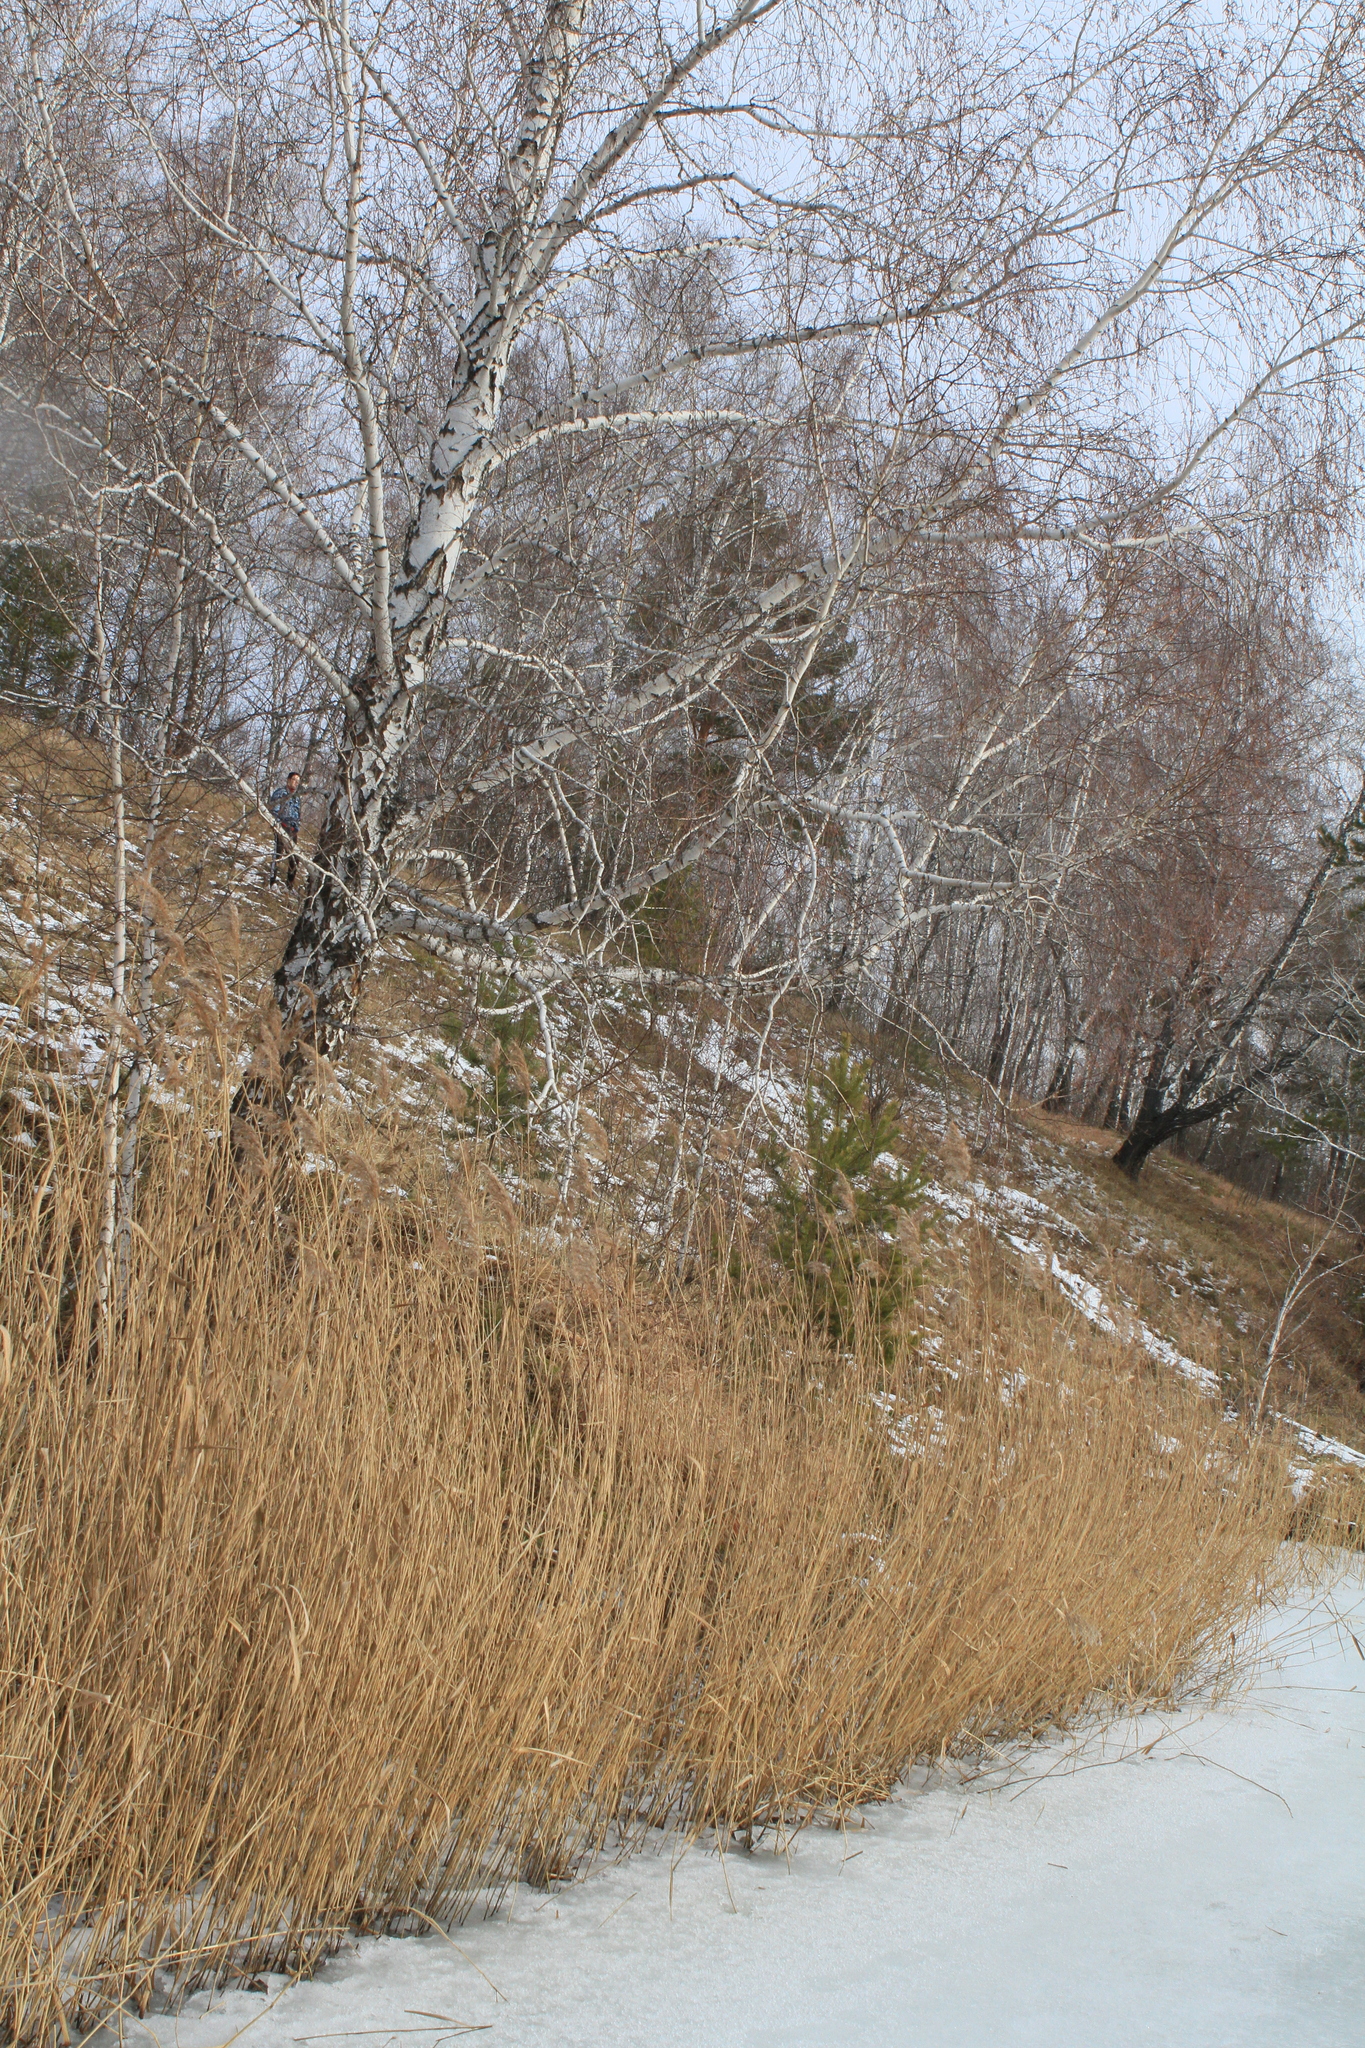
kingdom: Plantae
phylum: Tracheophyta
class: Liliopsida
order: Poales
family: Poaceae
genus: Phragmites
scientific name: Phragmites australis
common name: Common reed
